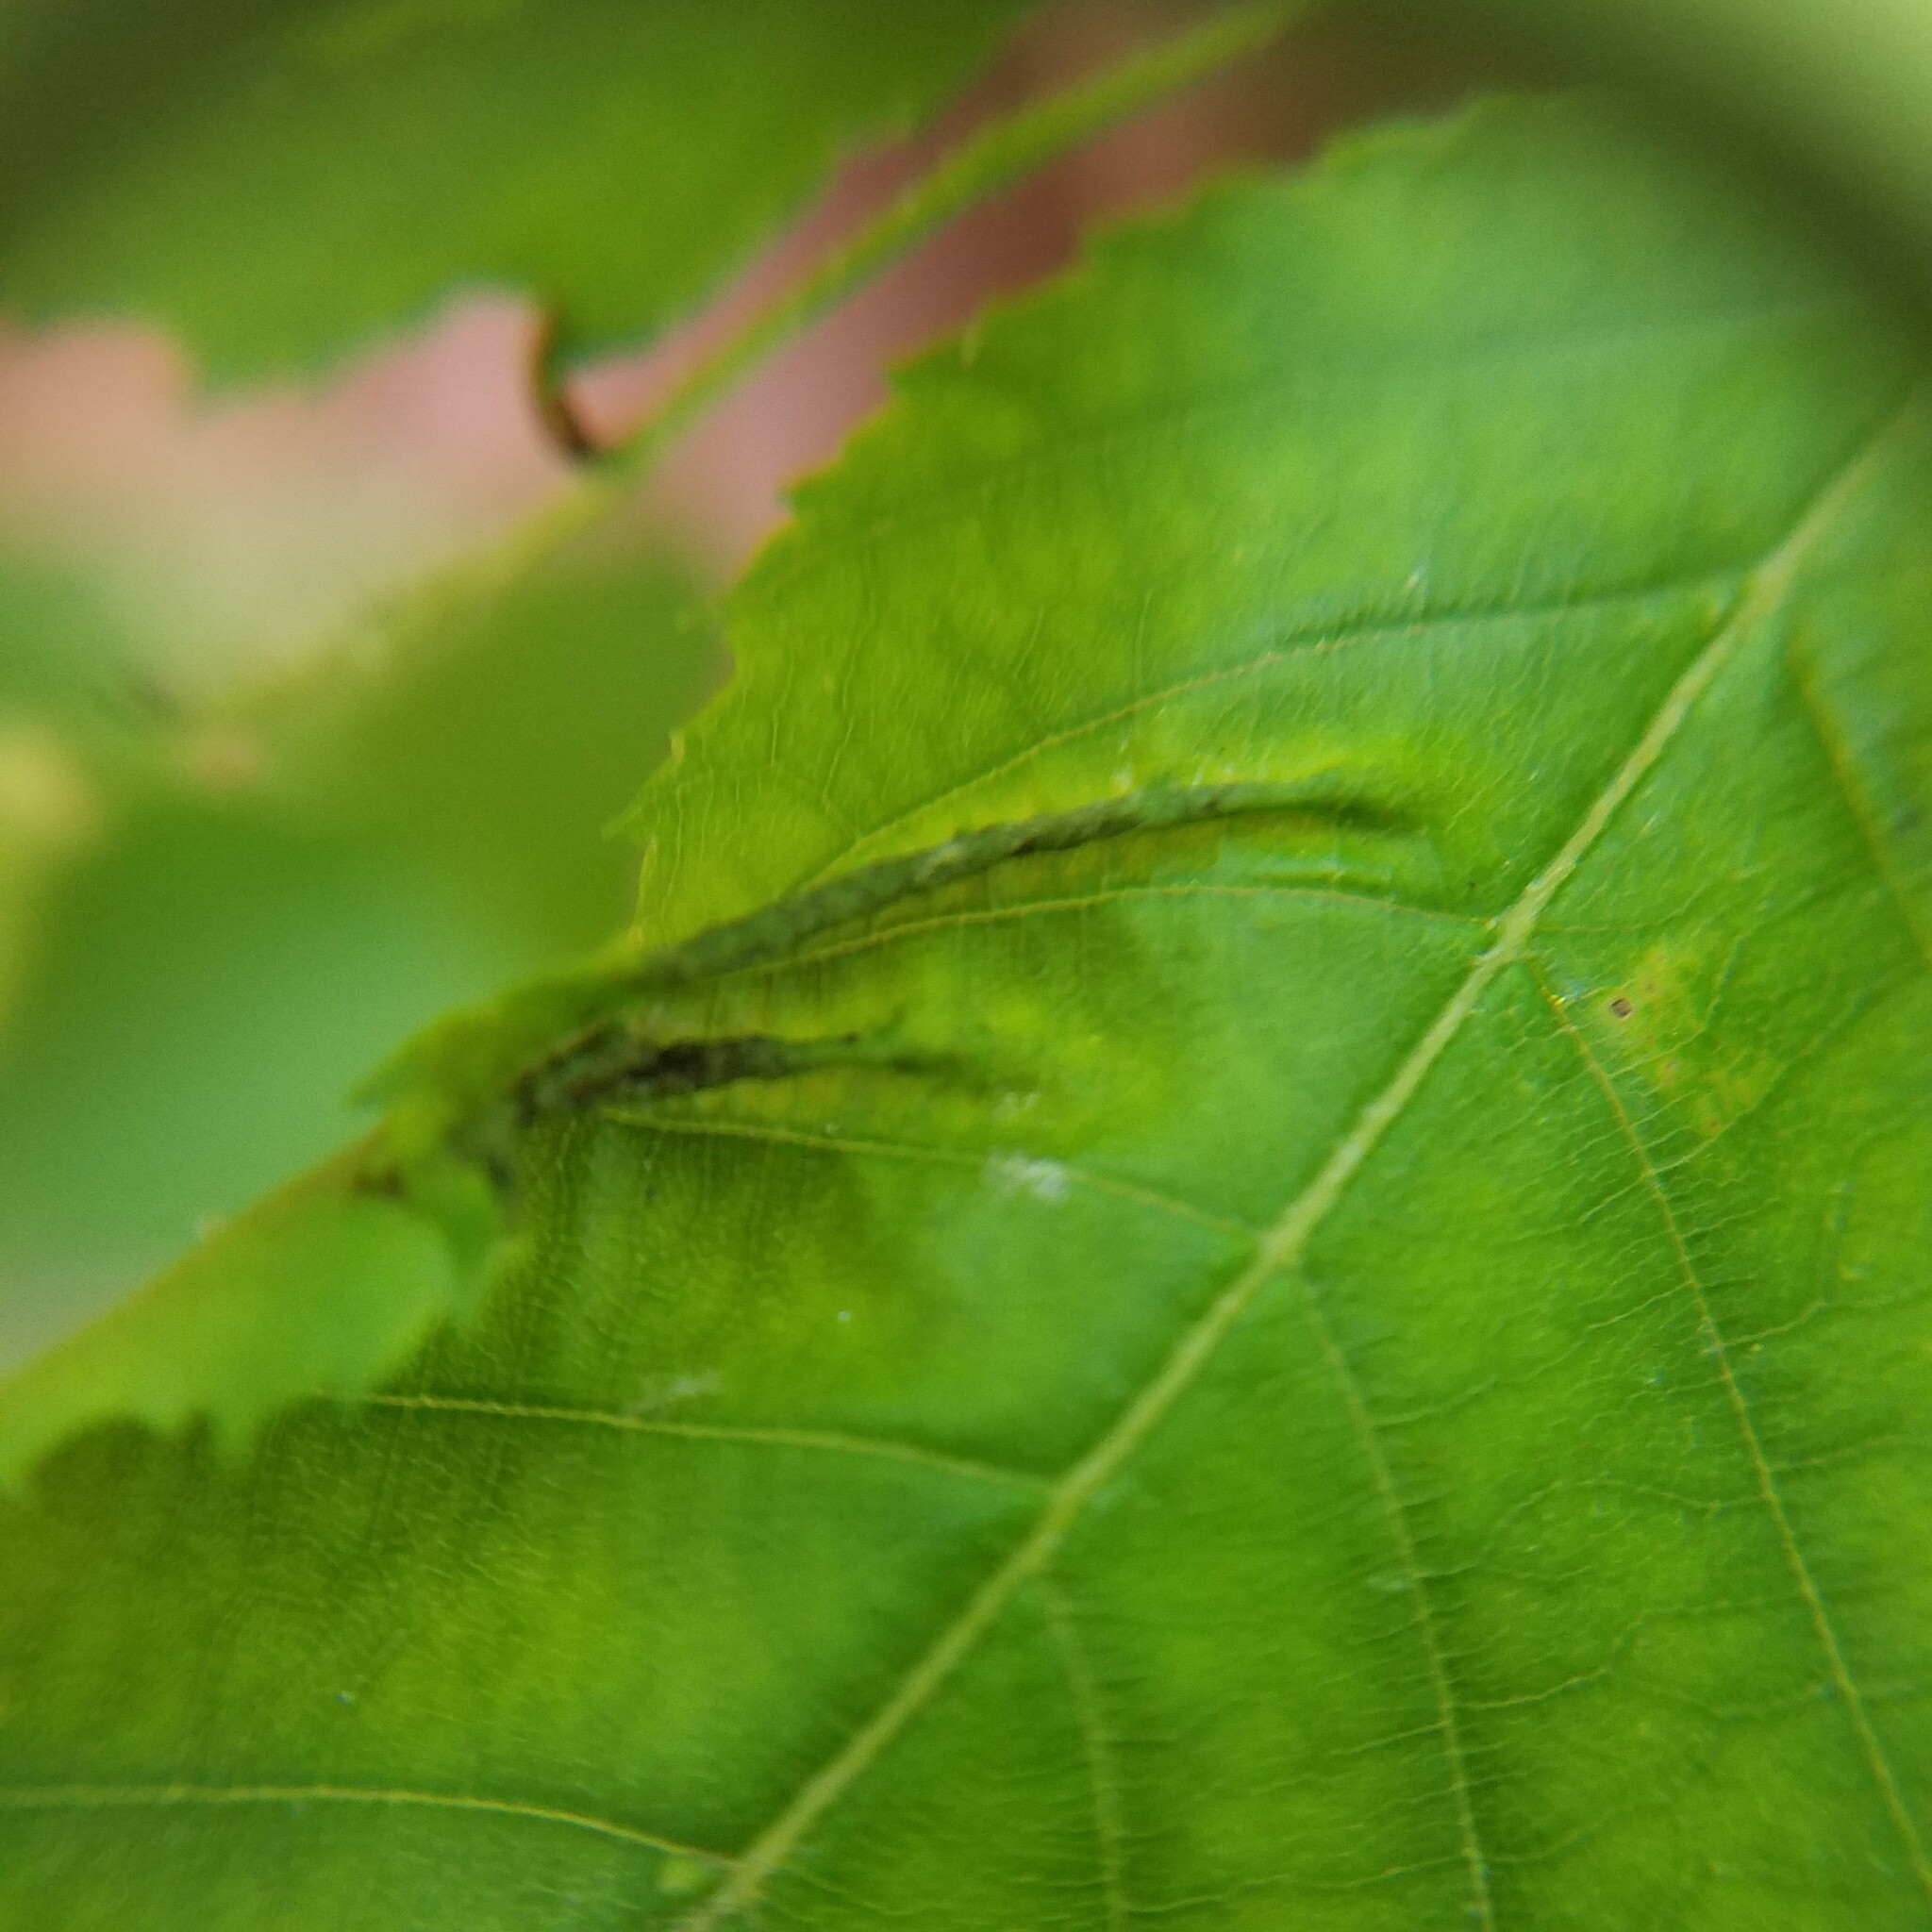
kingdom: Animalia
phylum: Arthropoda
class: Insecta
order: Diptera
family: Cecidomyiidae
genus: Dasineura
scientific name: Dasineura pudibunda
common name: Hornbeam leaf gall midge
